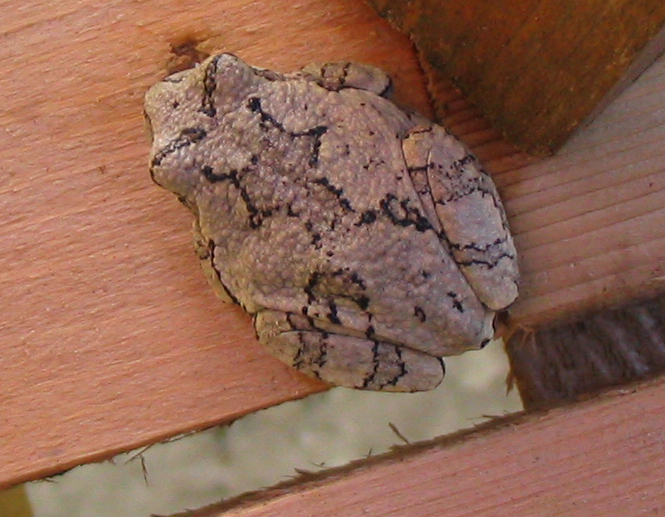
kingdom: Animalia
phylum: Chordata
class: Amphibia
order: Anura
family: Hylidae
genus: Dryophytes
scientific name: Dryophytes versicolor
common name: Gray treefrog
